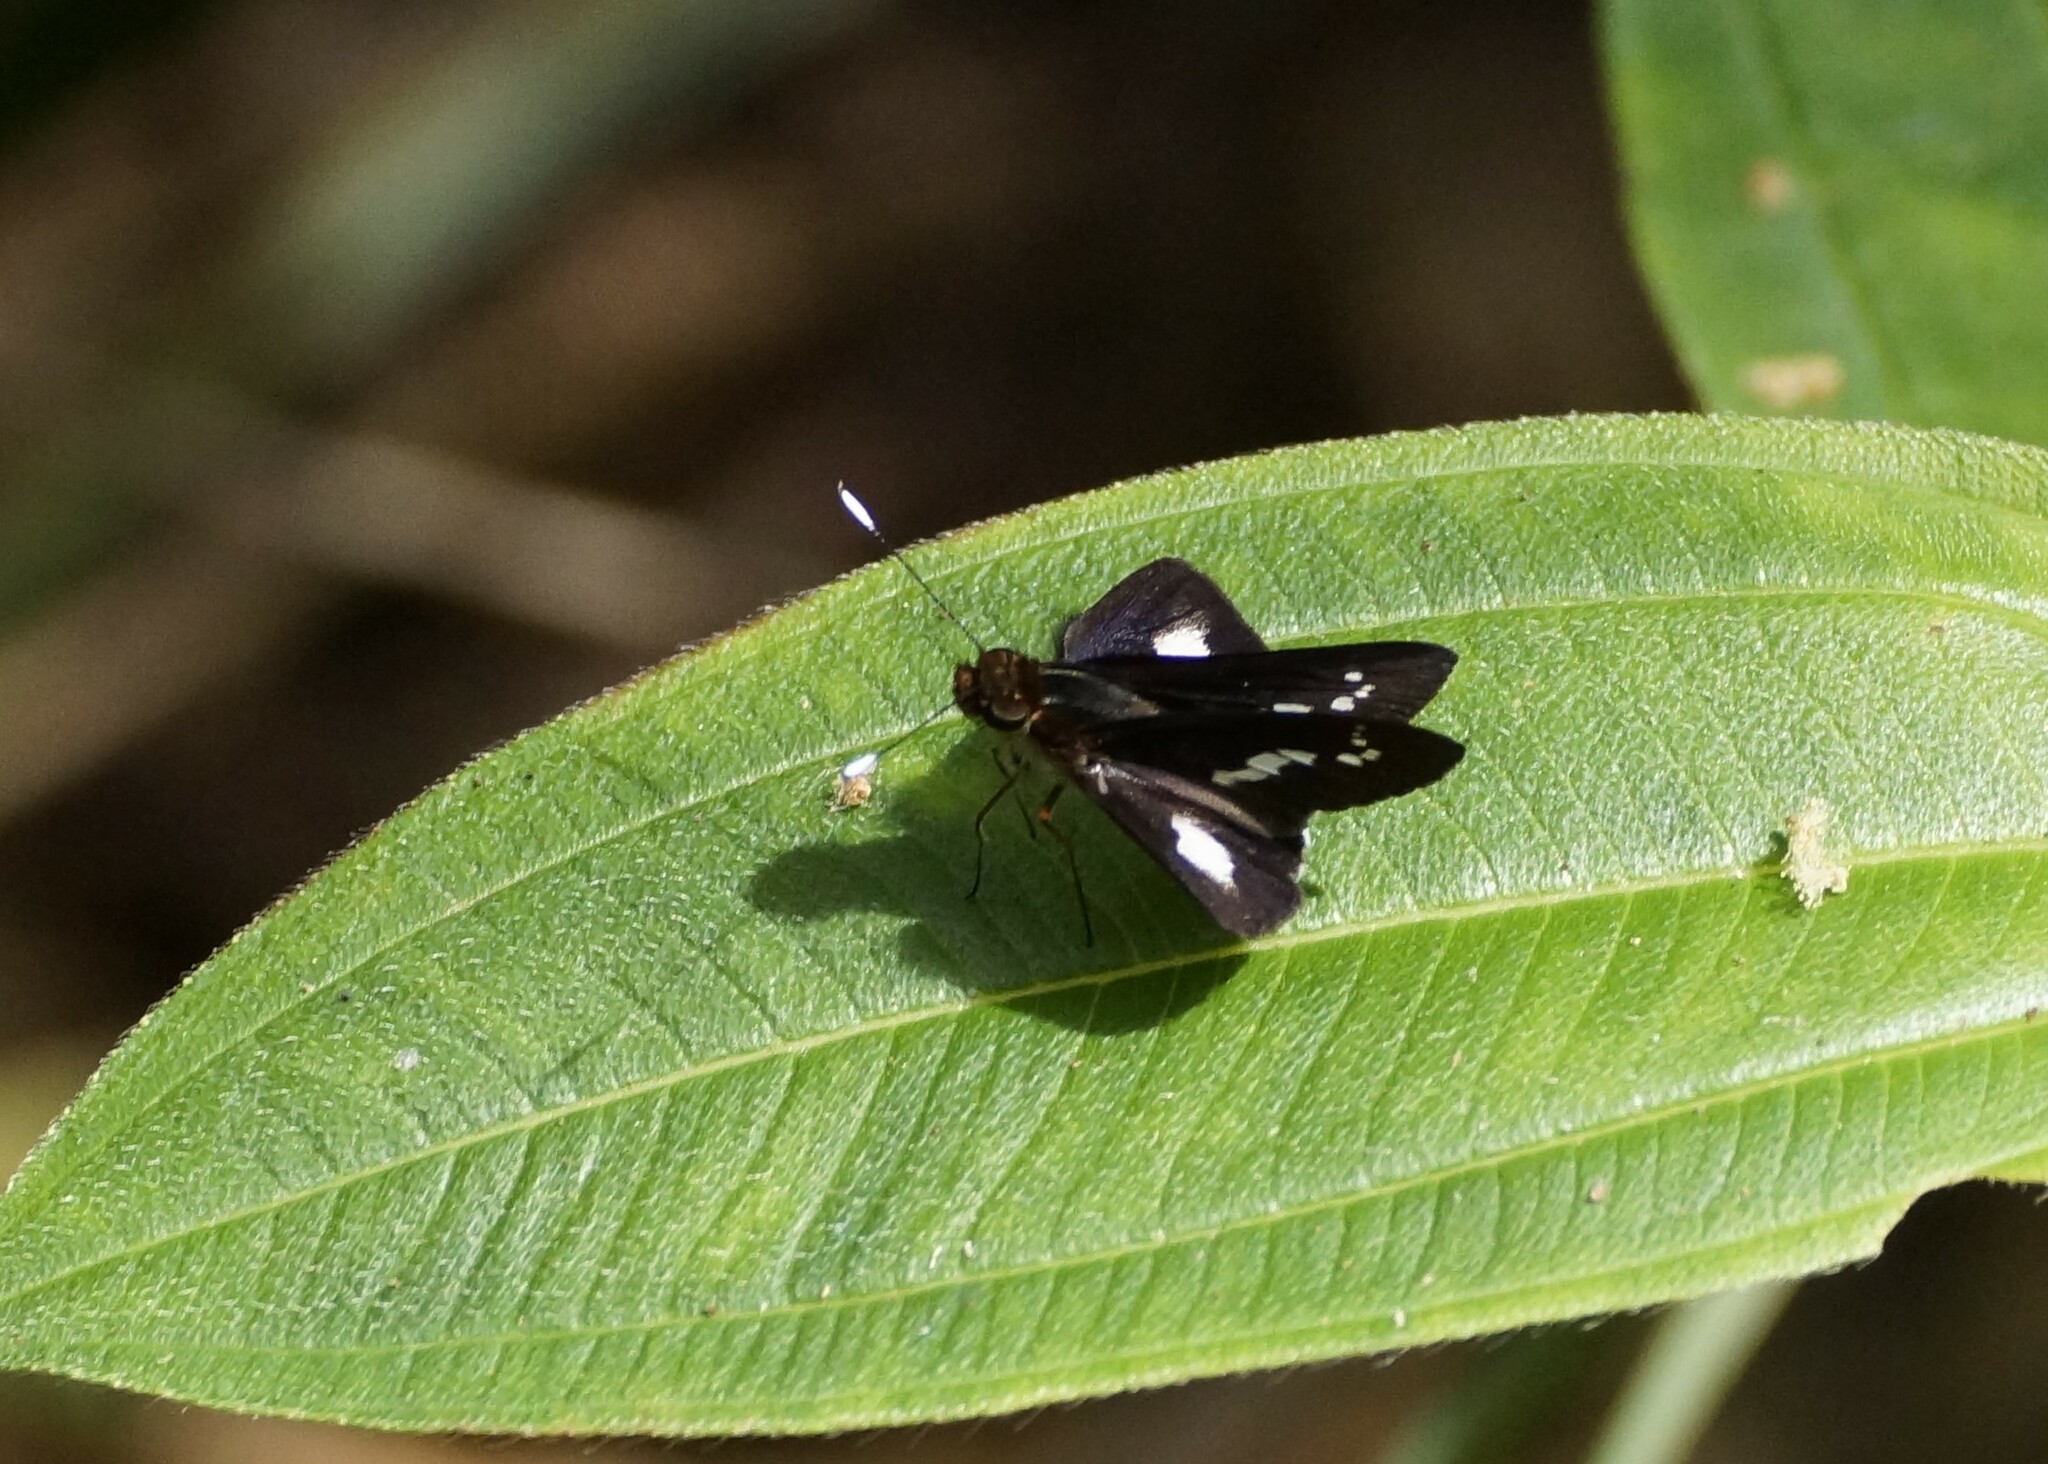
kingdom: Animalia
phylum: Arthropoda
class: Insecta
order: Lepidoptera
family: Hesperiidae
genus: Sabera
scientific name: Sabera caesina
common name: White-clubbed swift
